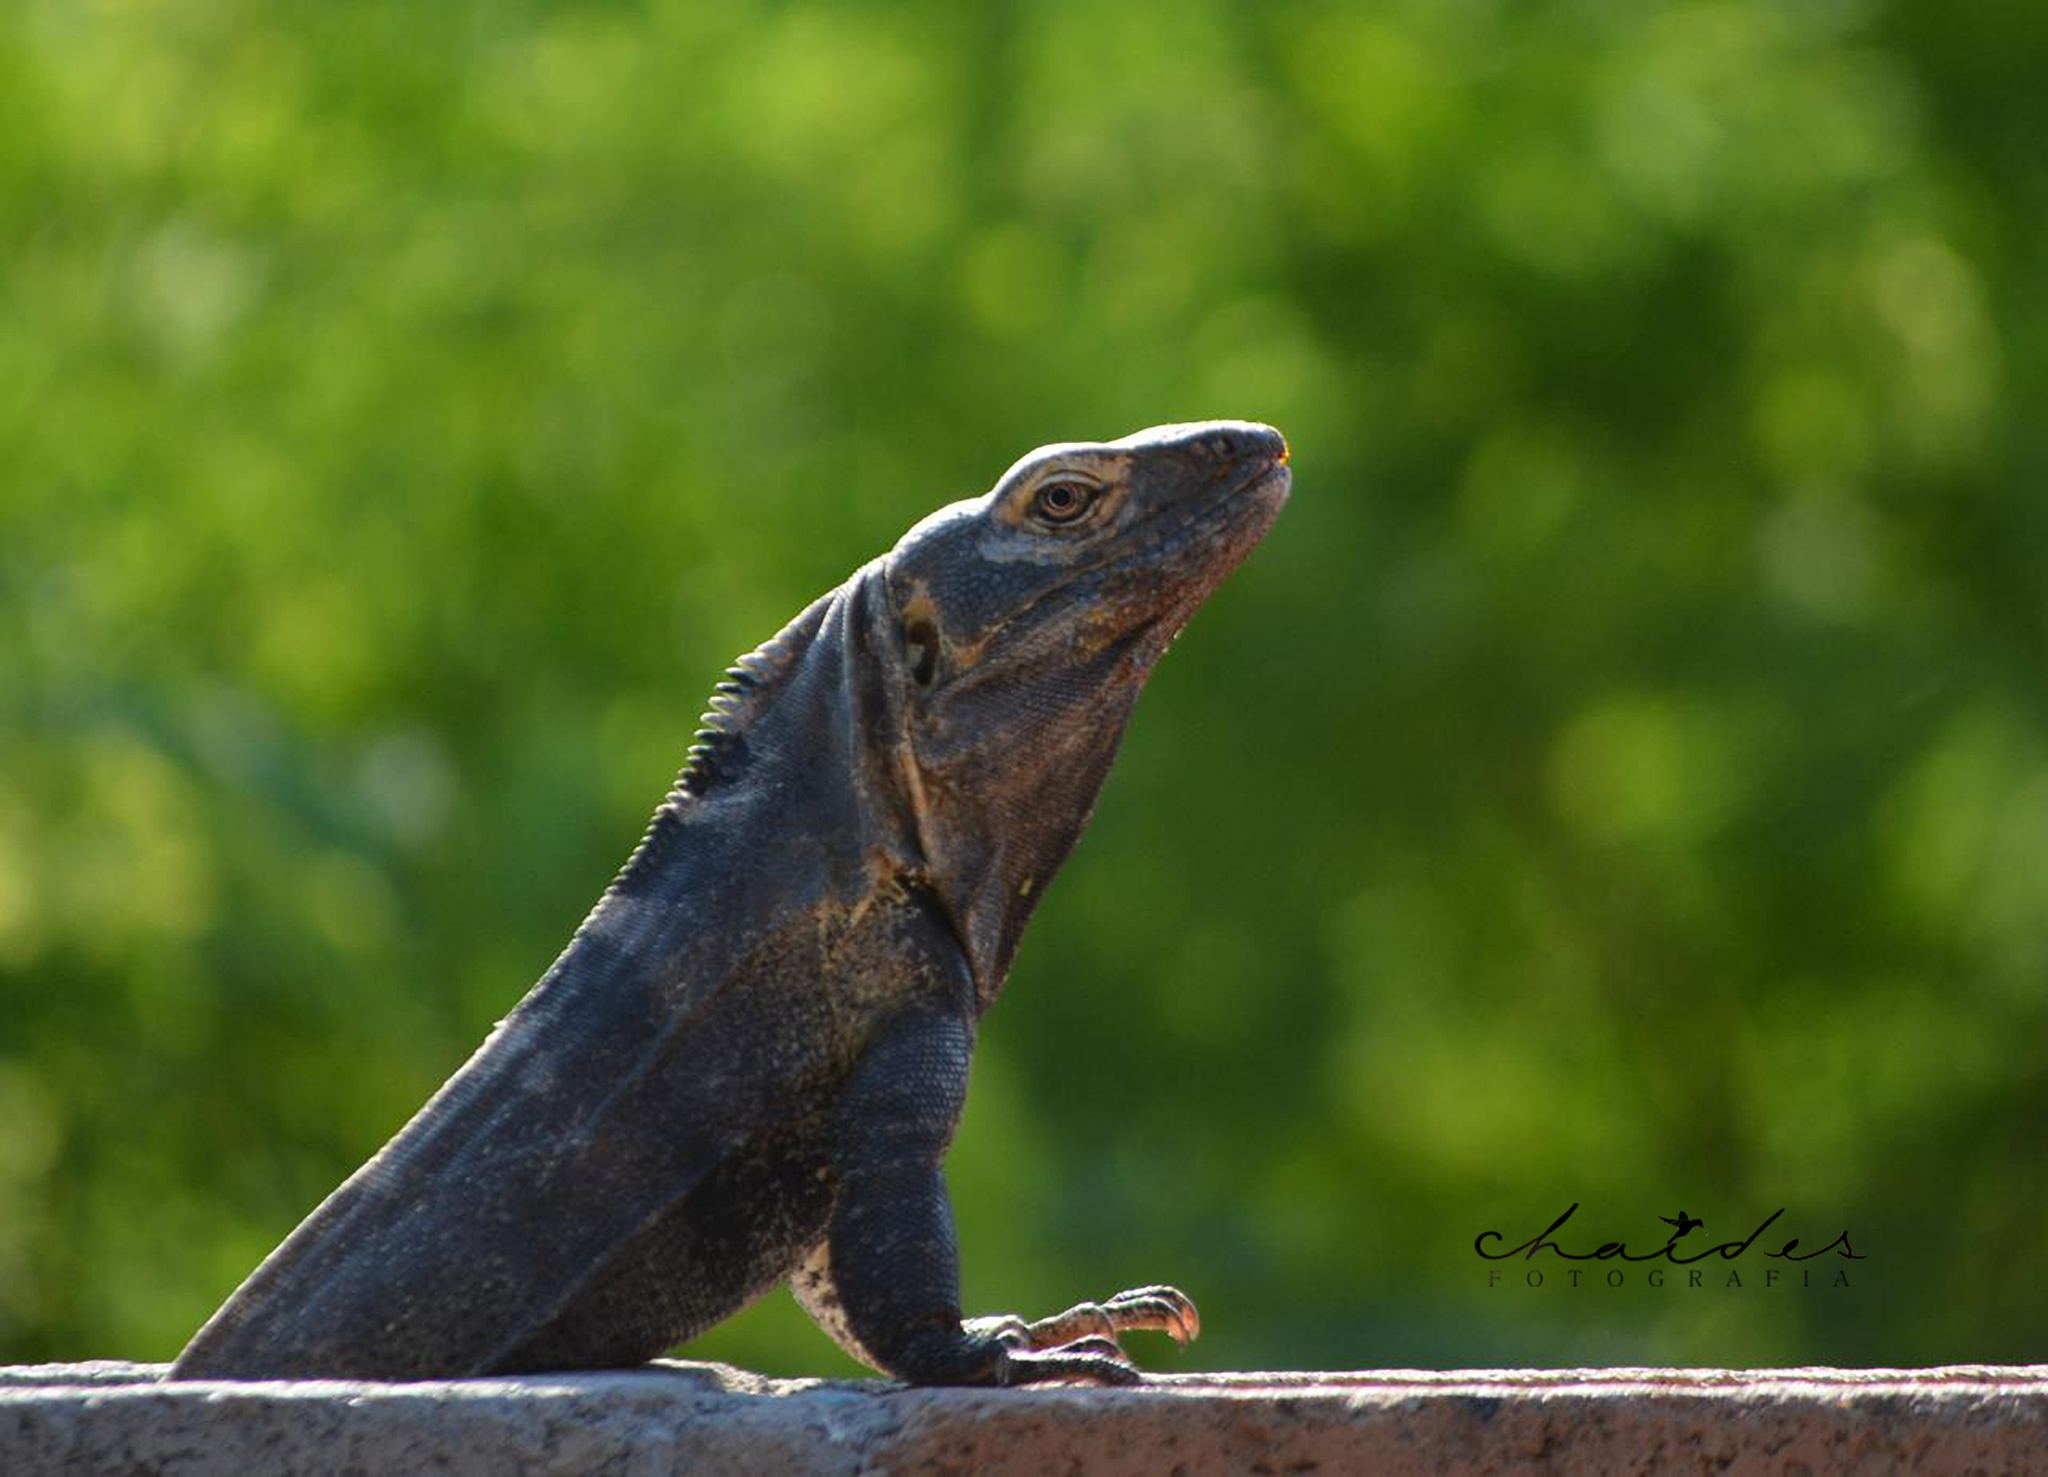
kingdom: Animalia
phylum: Chordata
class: Squamata
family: Iguanidae
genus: Ctenosaura
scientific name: Ctenosaura macrolopha
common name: Cape spinytail iguana
